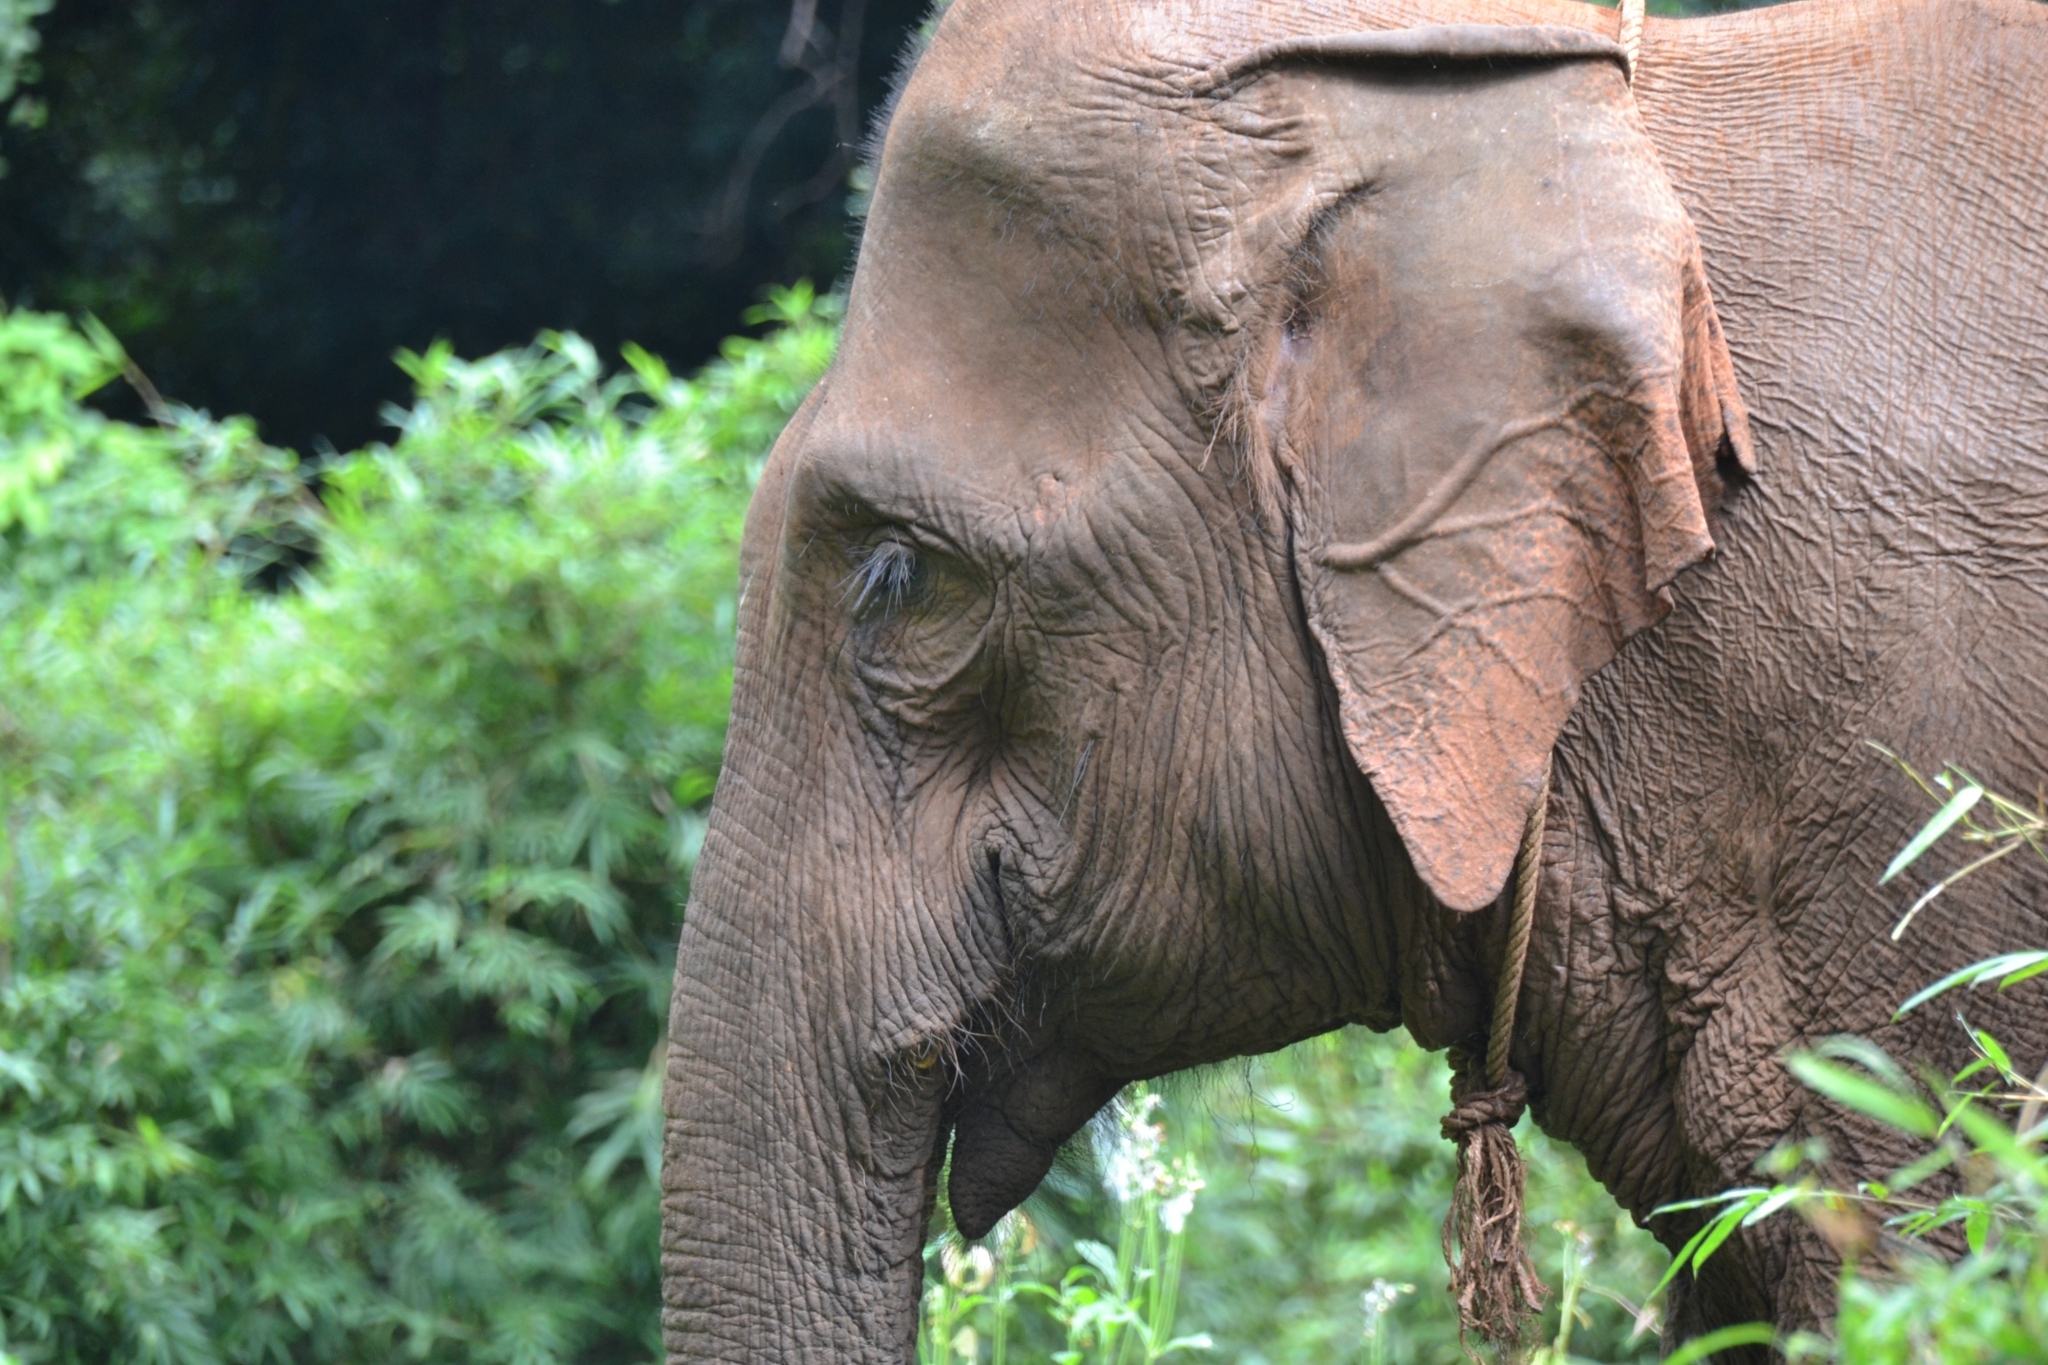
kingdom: Animalia
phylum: Chordata
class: Mammalia
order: Proboscidea
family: Elephantidae
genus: Elephas
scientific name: Elephas maximus
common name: Asian elephant
